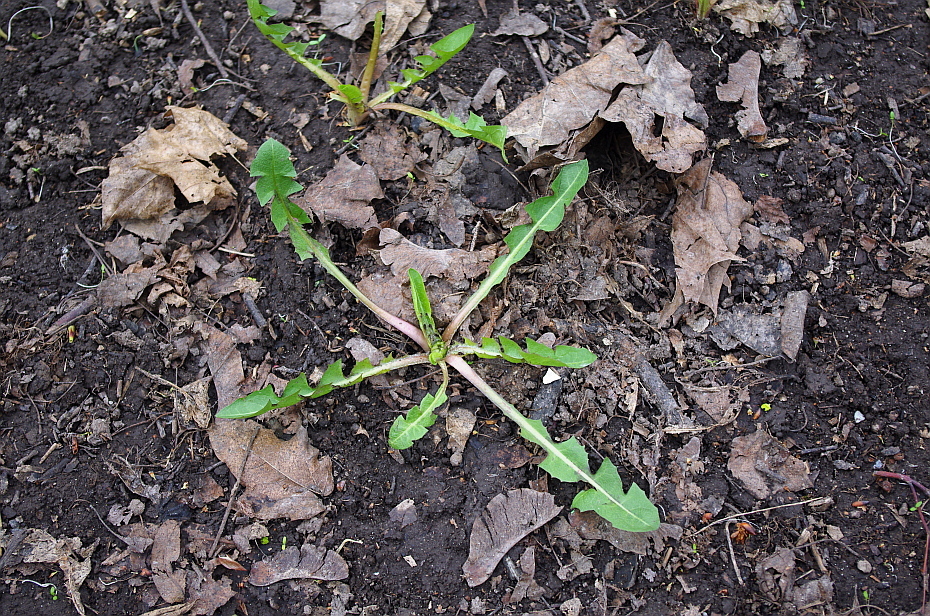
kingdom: Plantae
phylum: Tracheophyta
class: Magnoliopsida
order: Asterales
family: Asteraceae
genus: Taraxacum
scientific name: Taraxacum officinale
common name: Common dandelion
